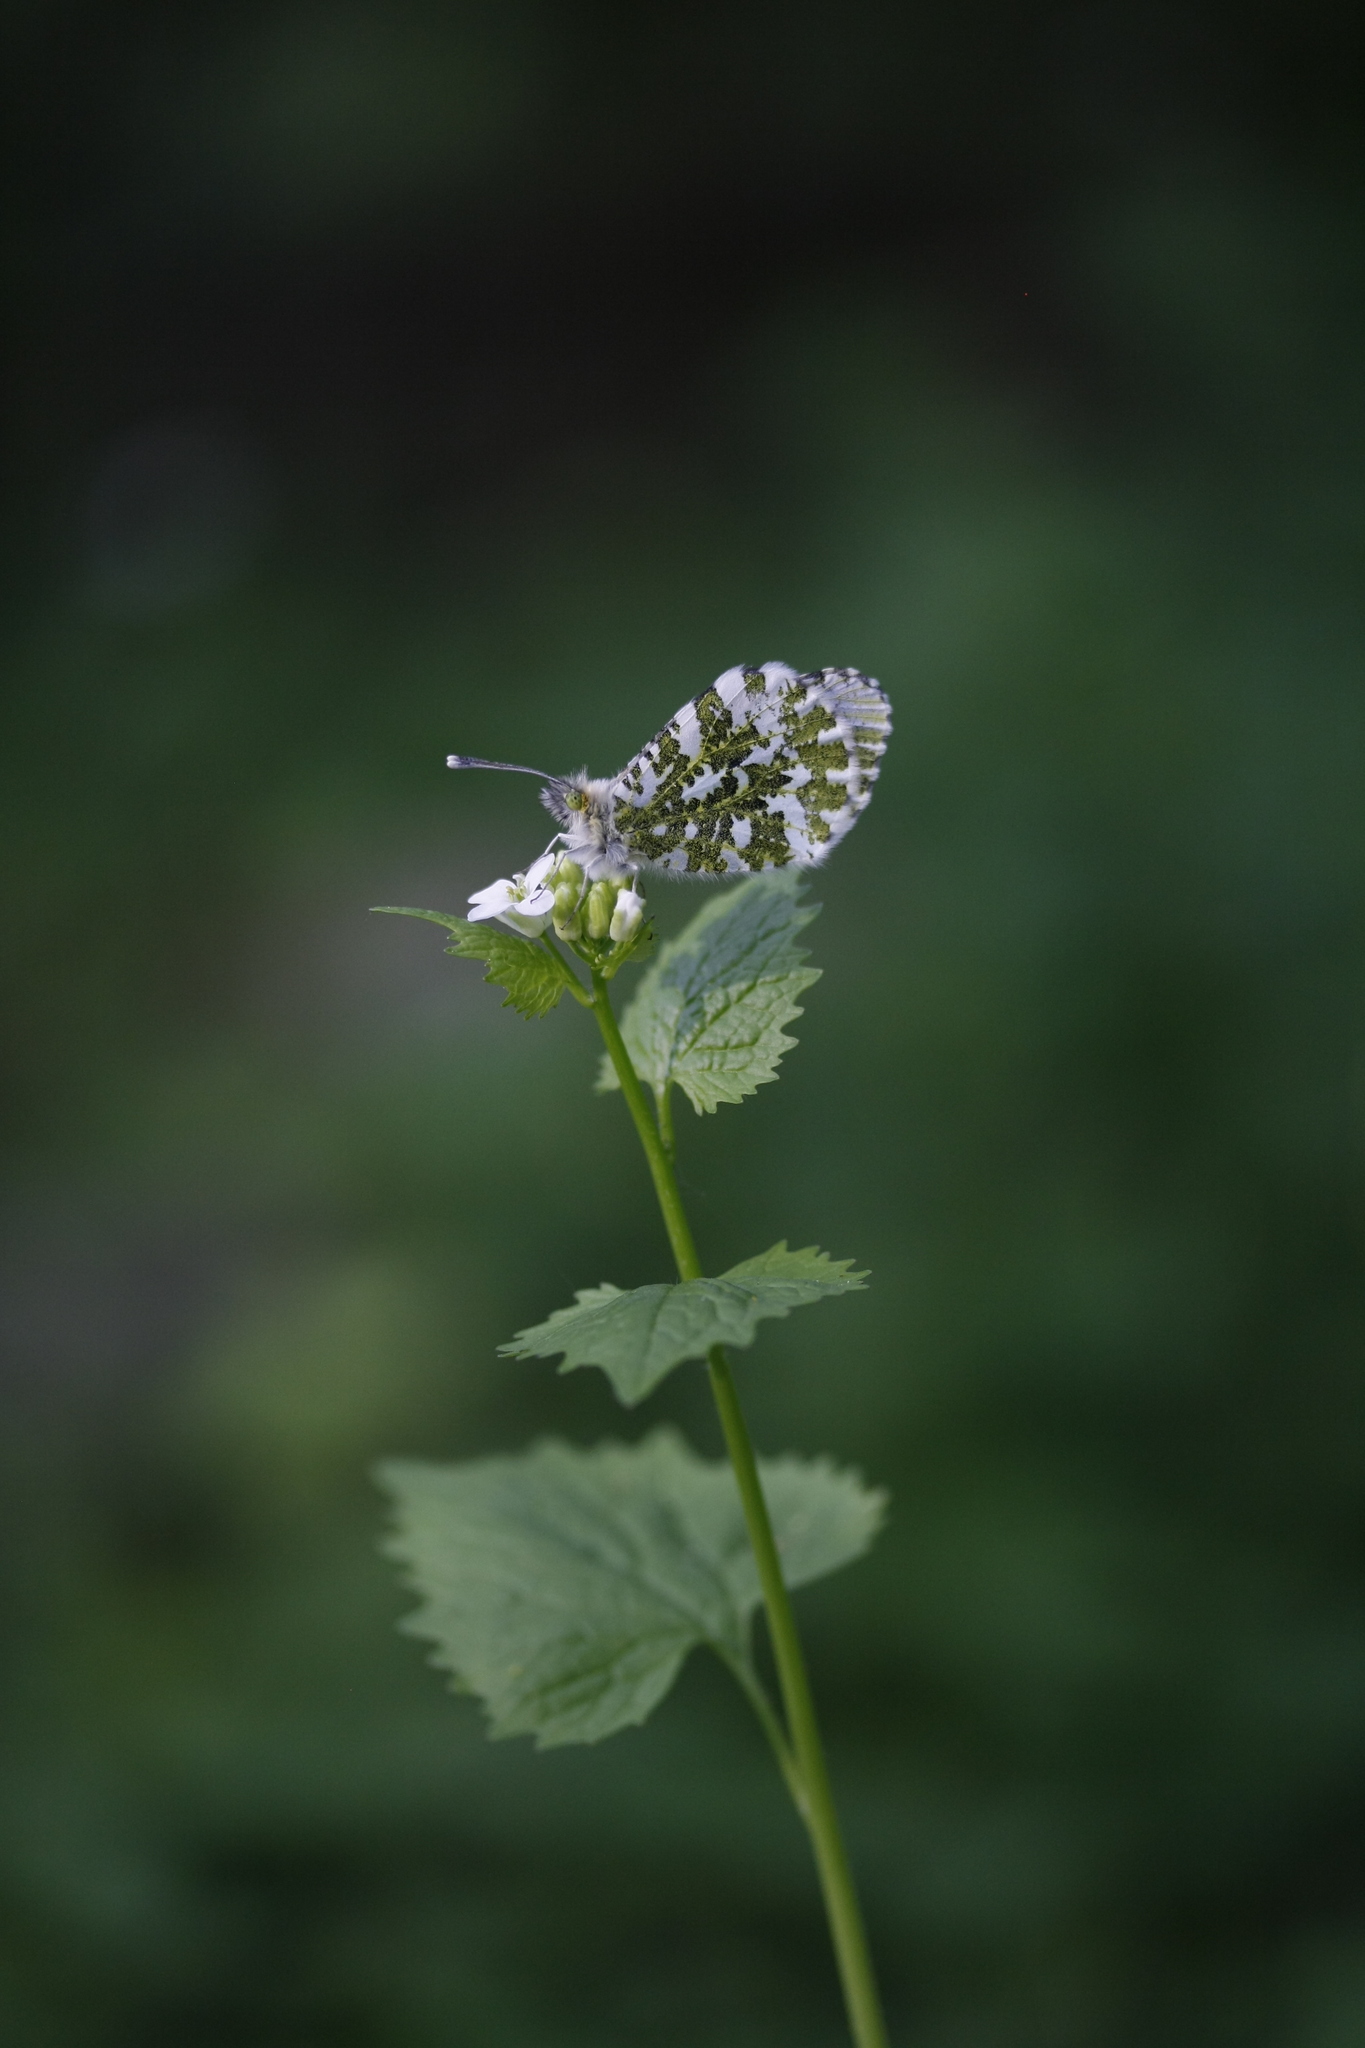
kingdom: Animalia
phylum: Arthropoda
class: Insecta
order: Lepidoptera
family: Pieridae
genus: Anthocharis
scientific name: Anthocharis cardamines
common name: Orange-tip
